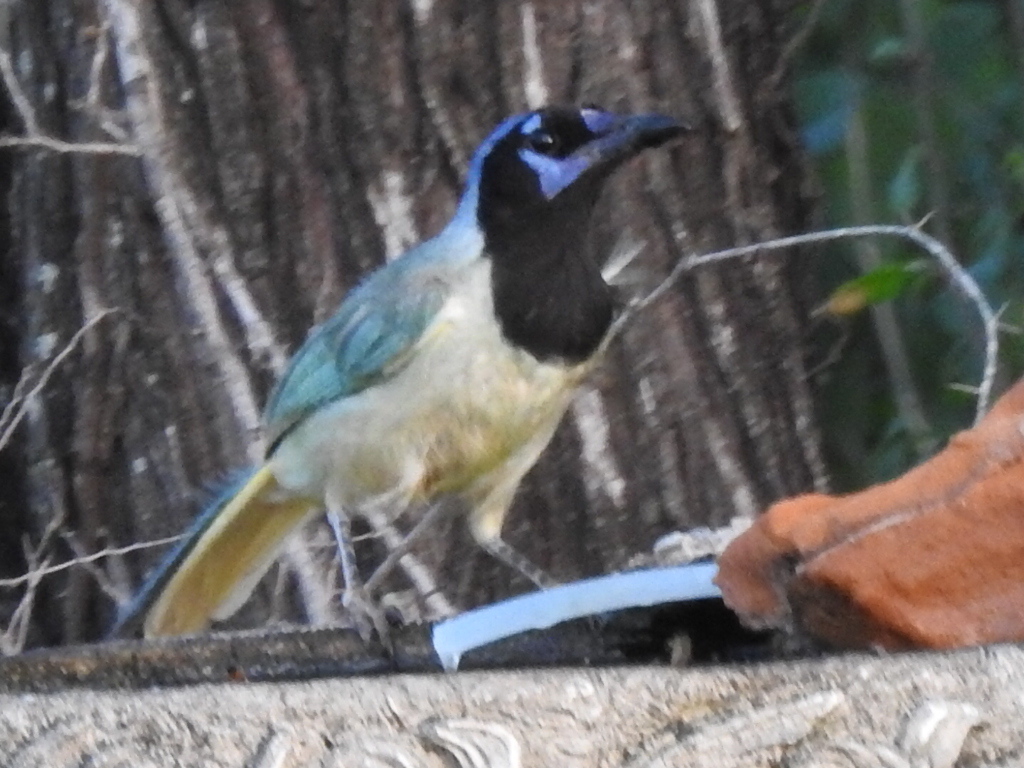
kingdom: Animalia
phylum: Chordata
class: Aves
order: Passeriformes
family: Corvidae
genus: Cyanocorax
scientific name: Cyanocorax yncas
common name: Green jay
